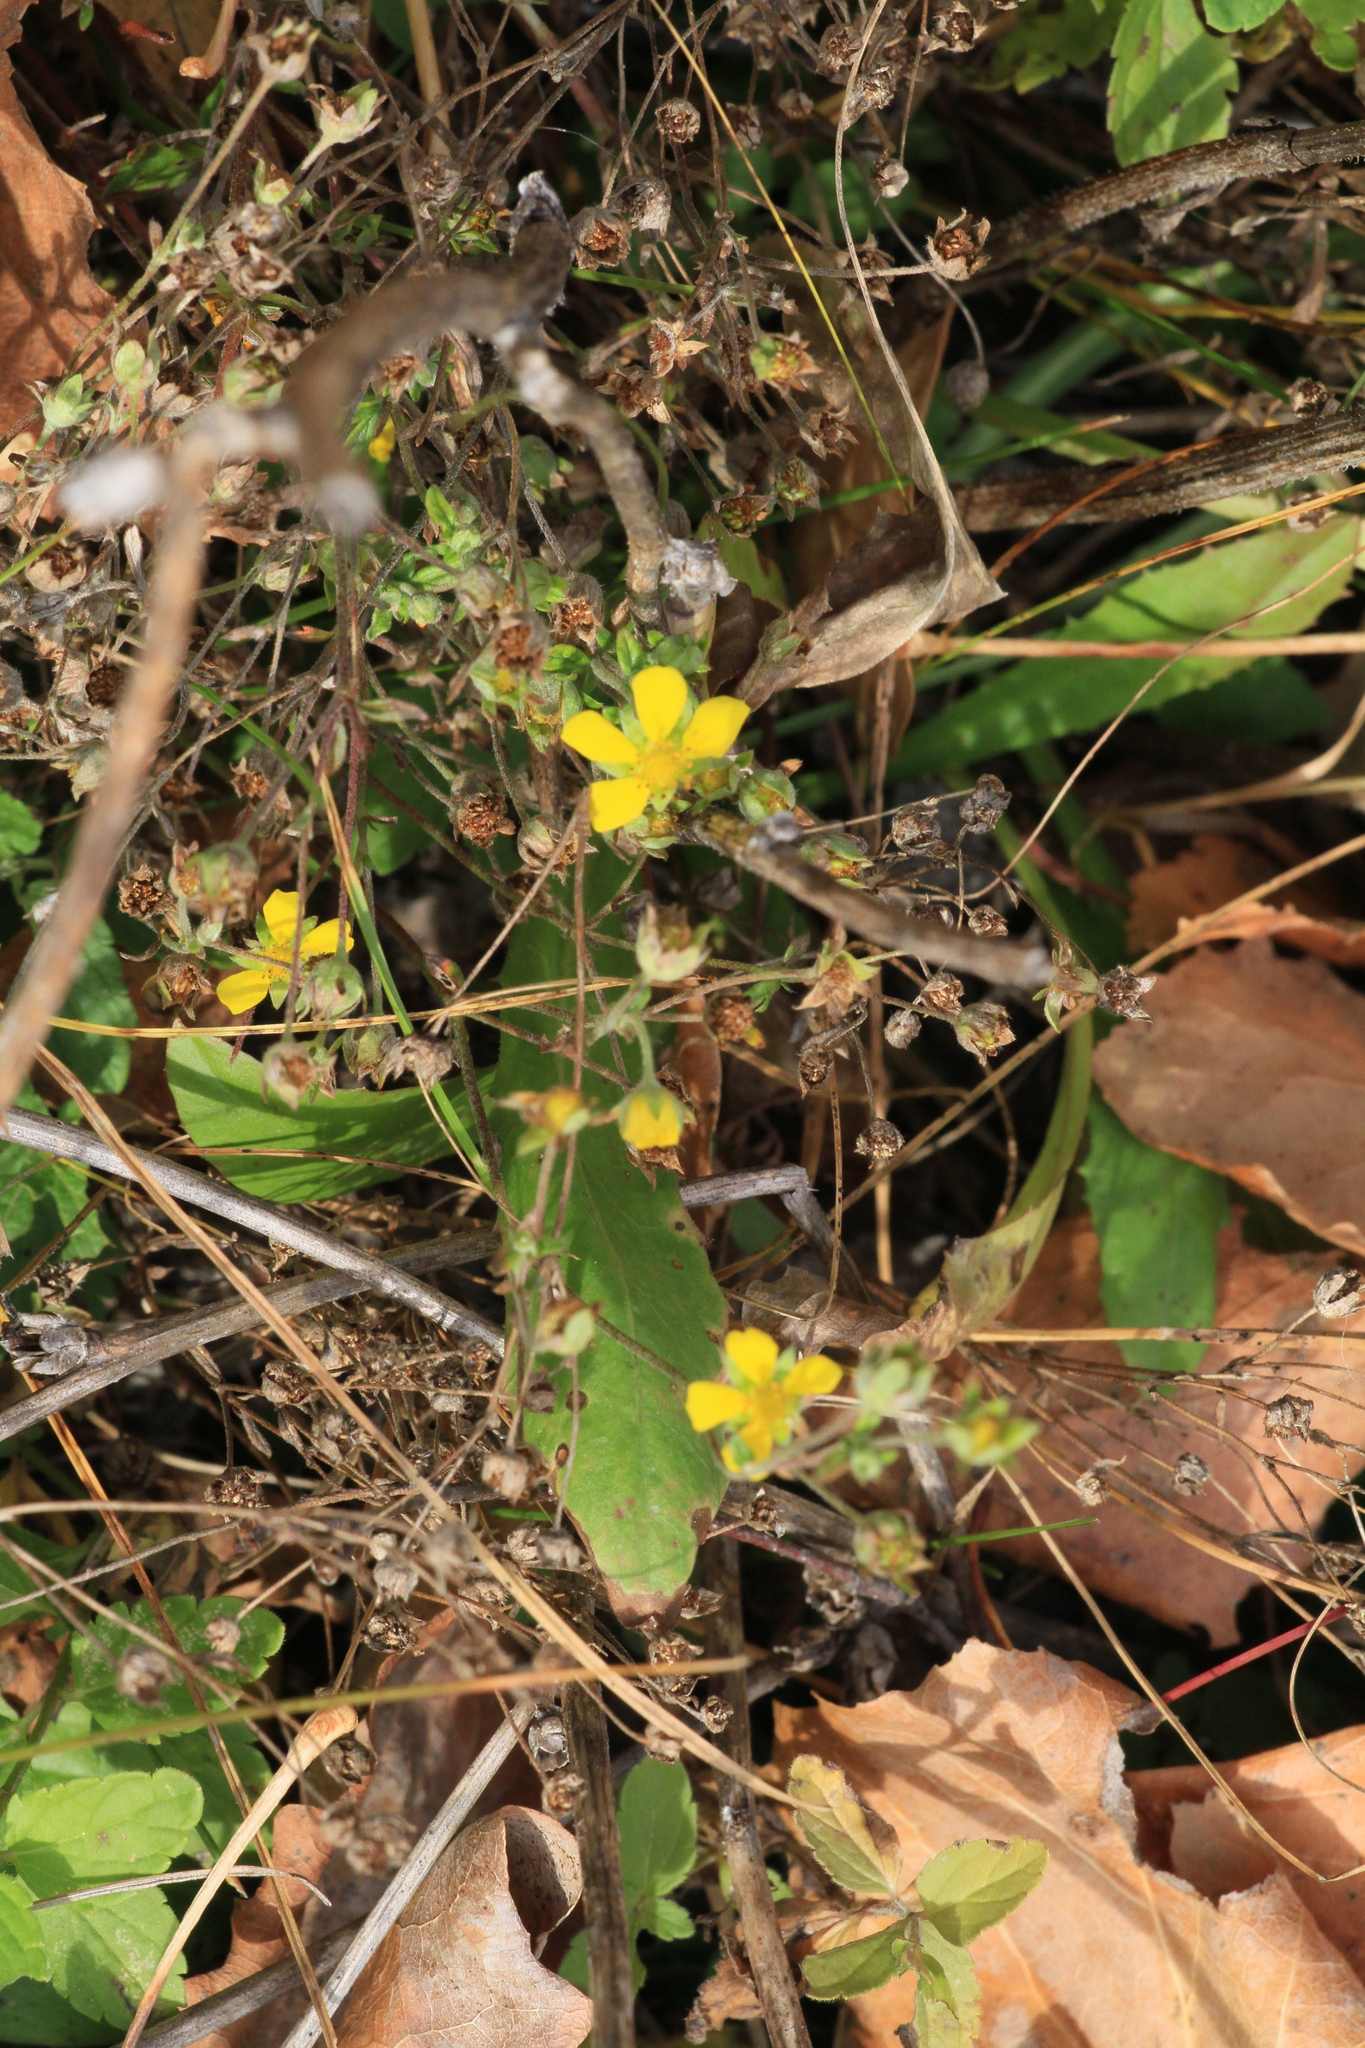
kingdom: Plantae
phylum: Tracheophyta
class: Magnoliopsida
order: Rosales
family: Rosaceae
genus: Potentilla
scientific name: Potentilla argentea
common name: Hoary cinquefoil
